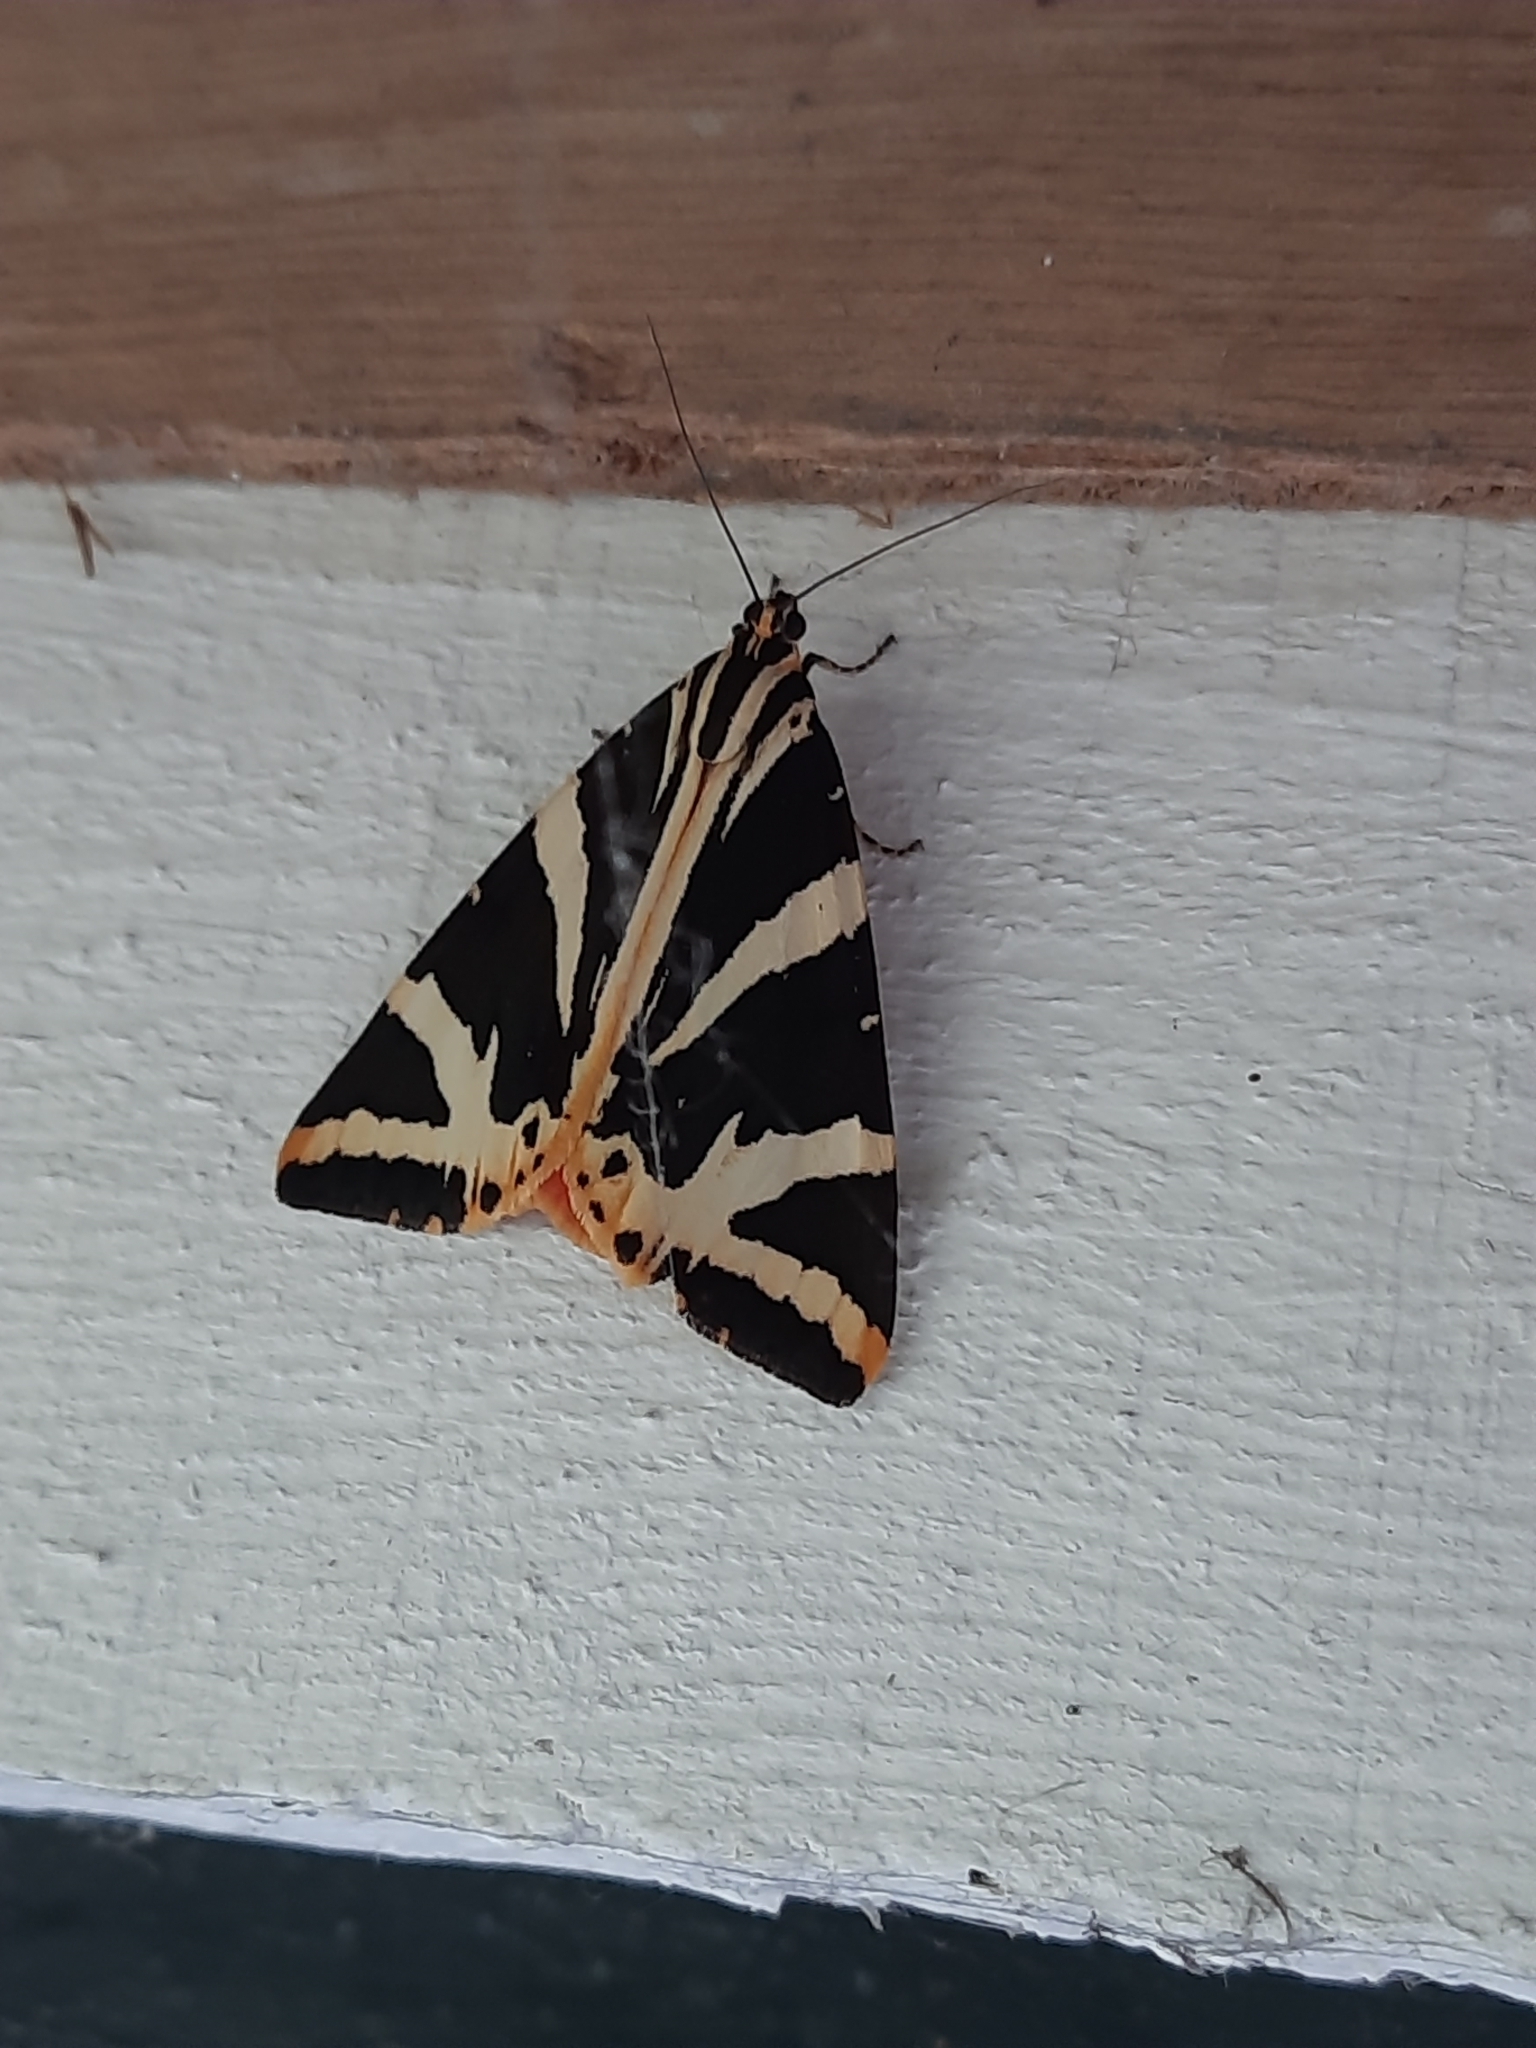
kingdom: Animalia
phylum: Arthropoda
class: Insecta
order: Lepidoptera
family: Erebidae
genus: Euplagia
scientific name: Euplagia quadripunctaria
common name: Jersey tiger
